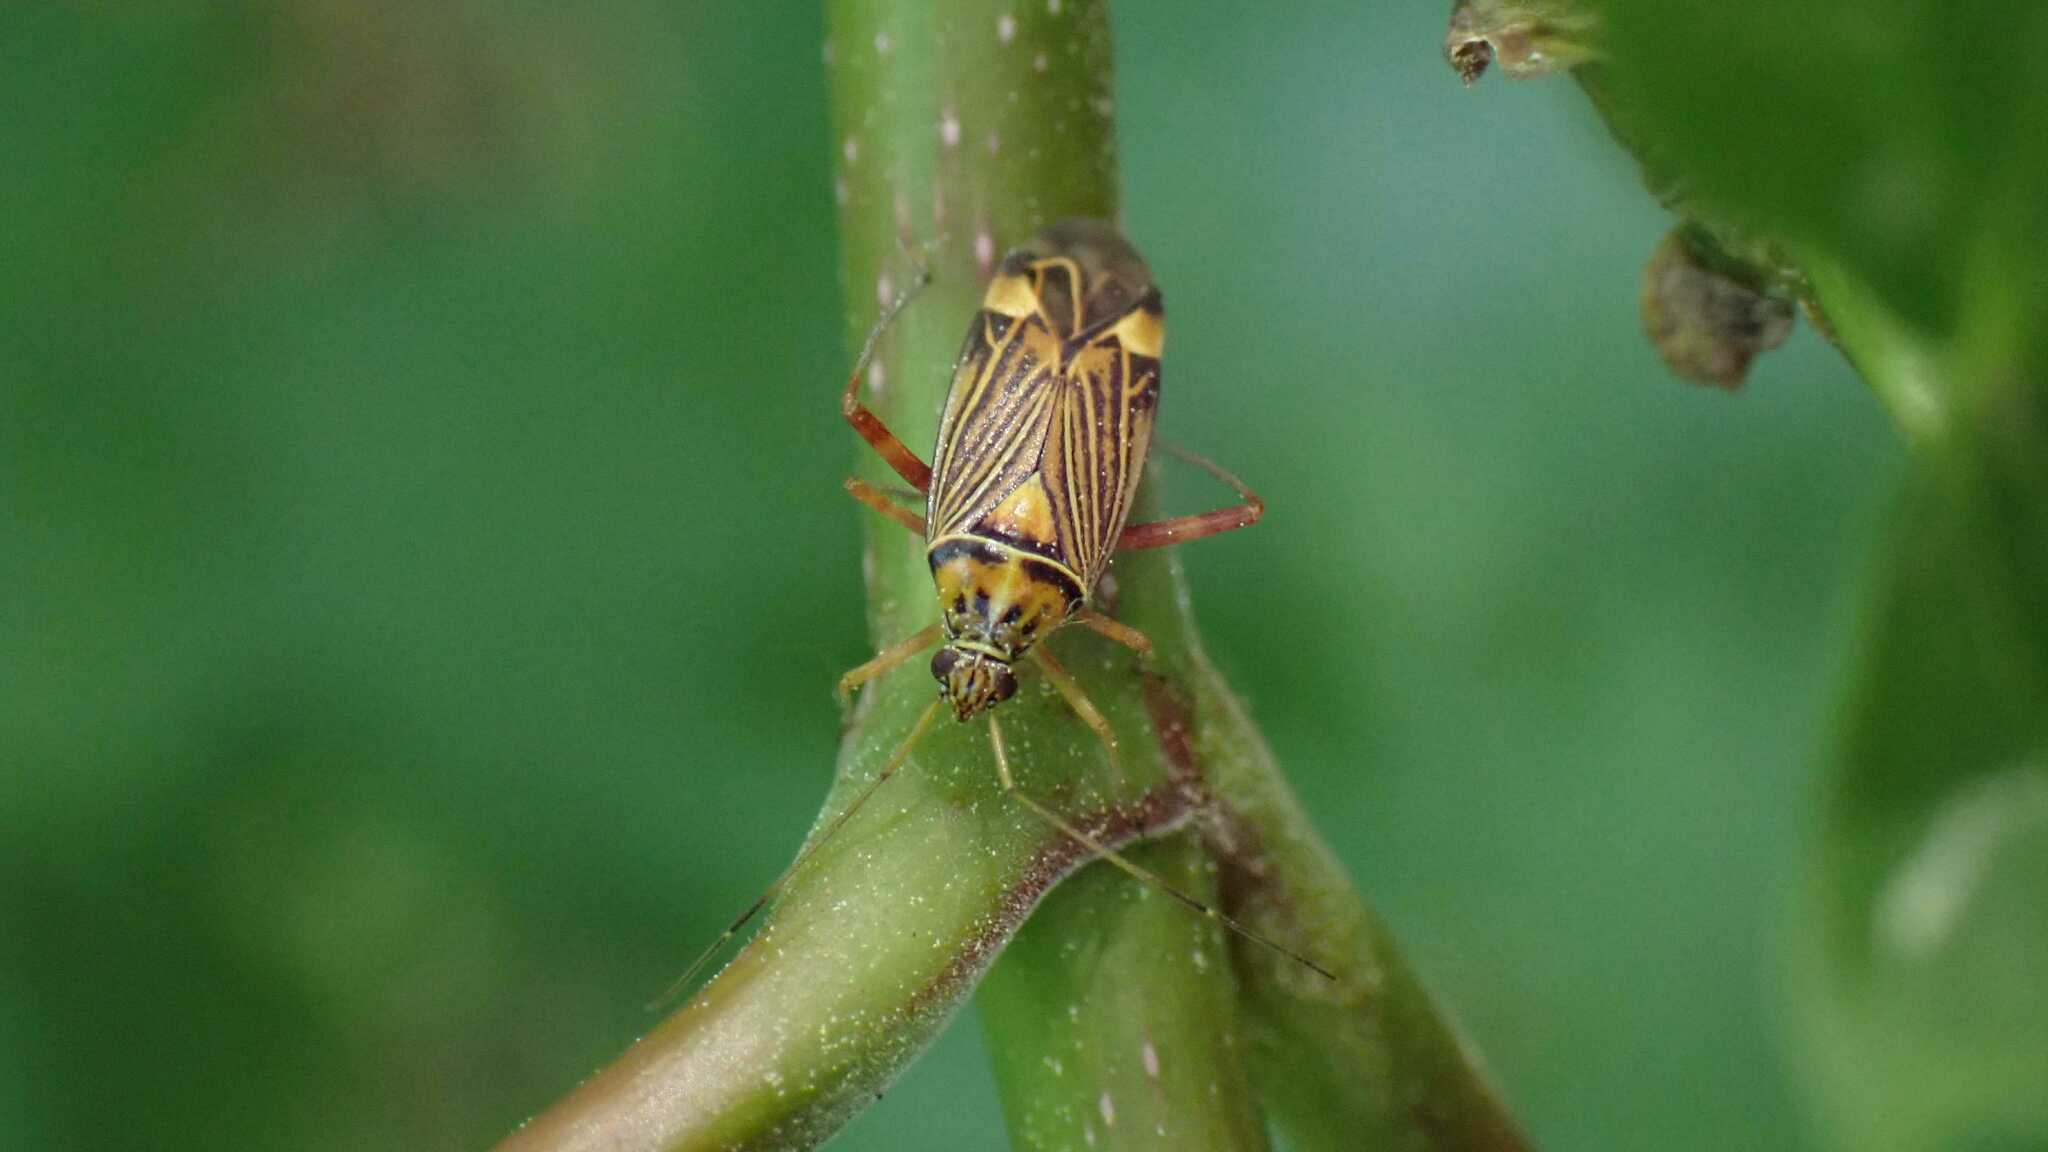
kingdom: Animalia
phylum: Arthropoda
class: Insecta
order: Hemiptera
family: Miridae
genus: Rhabdomiris
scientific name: Rhabdomiris striatellus
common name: Plant bug
